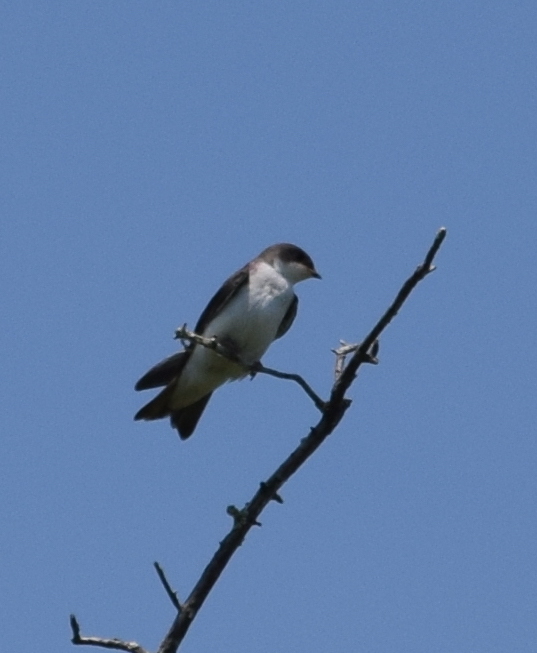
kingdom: Animalia
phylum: Chordata
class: Aves
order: Passeriformes
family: Hirundinidae
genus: Tachycineta
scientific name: Tachycineta bicolor
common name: Tree swallow
